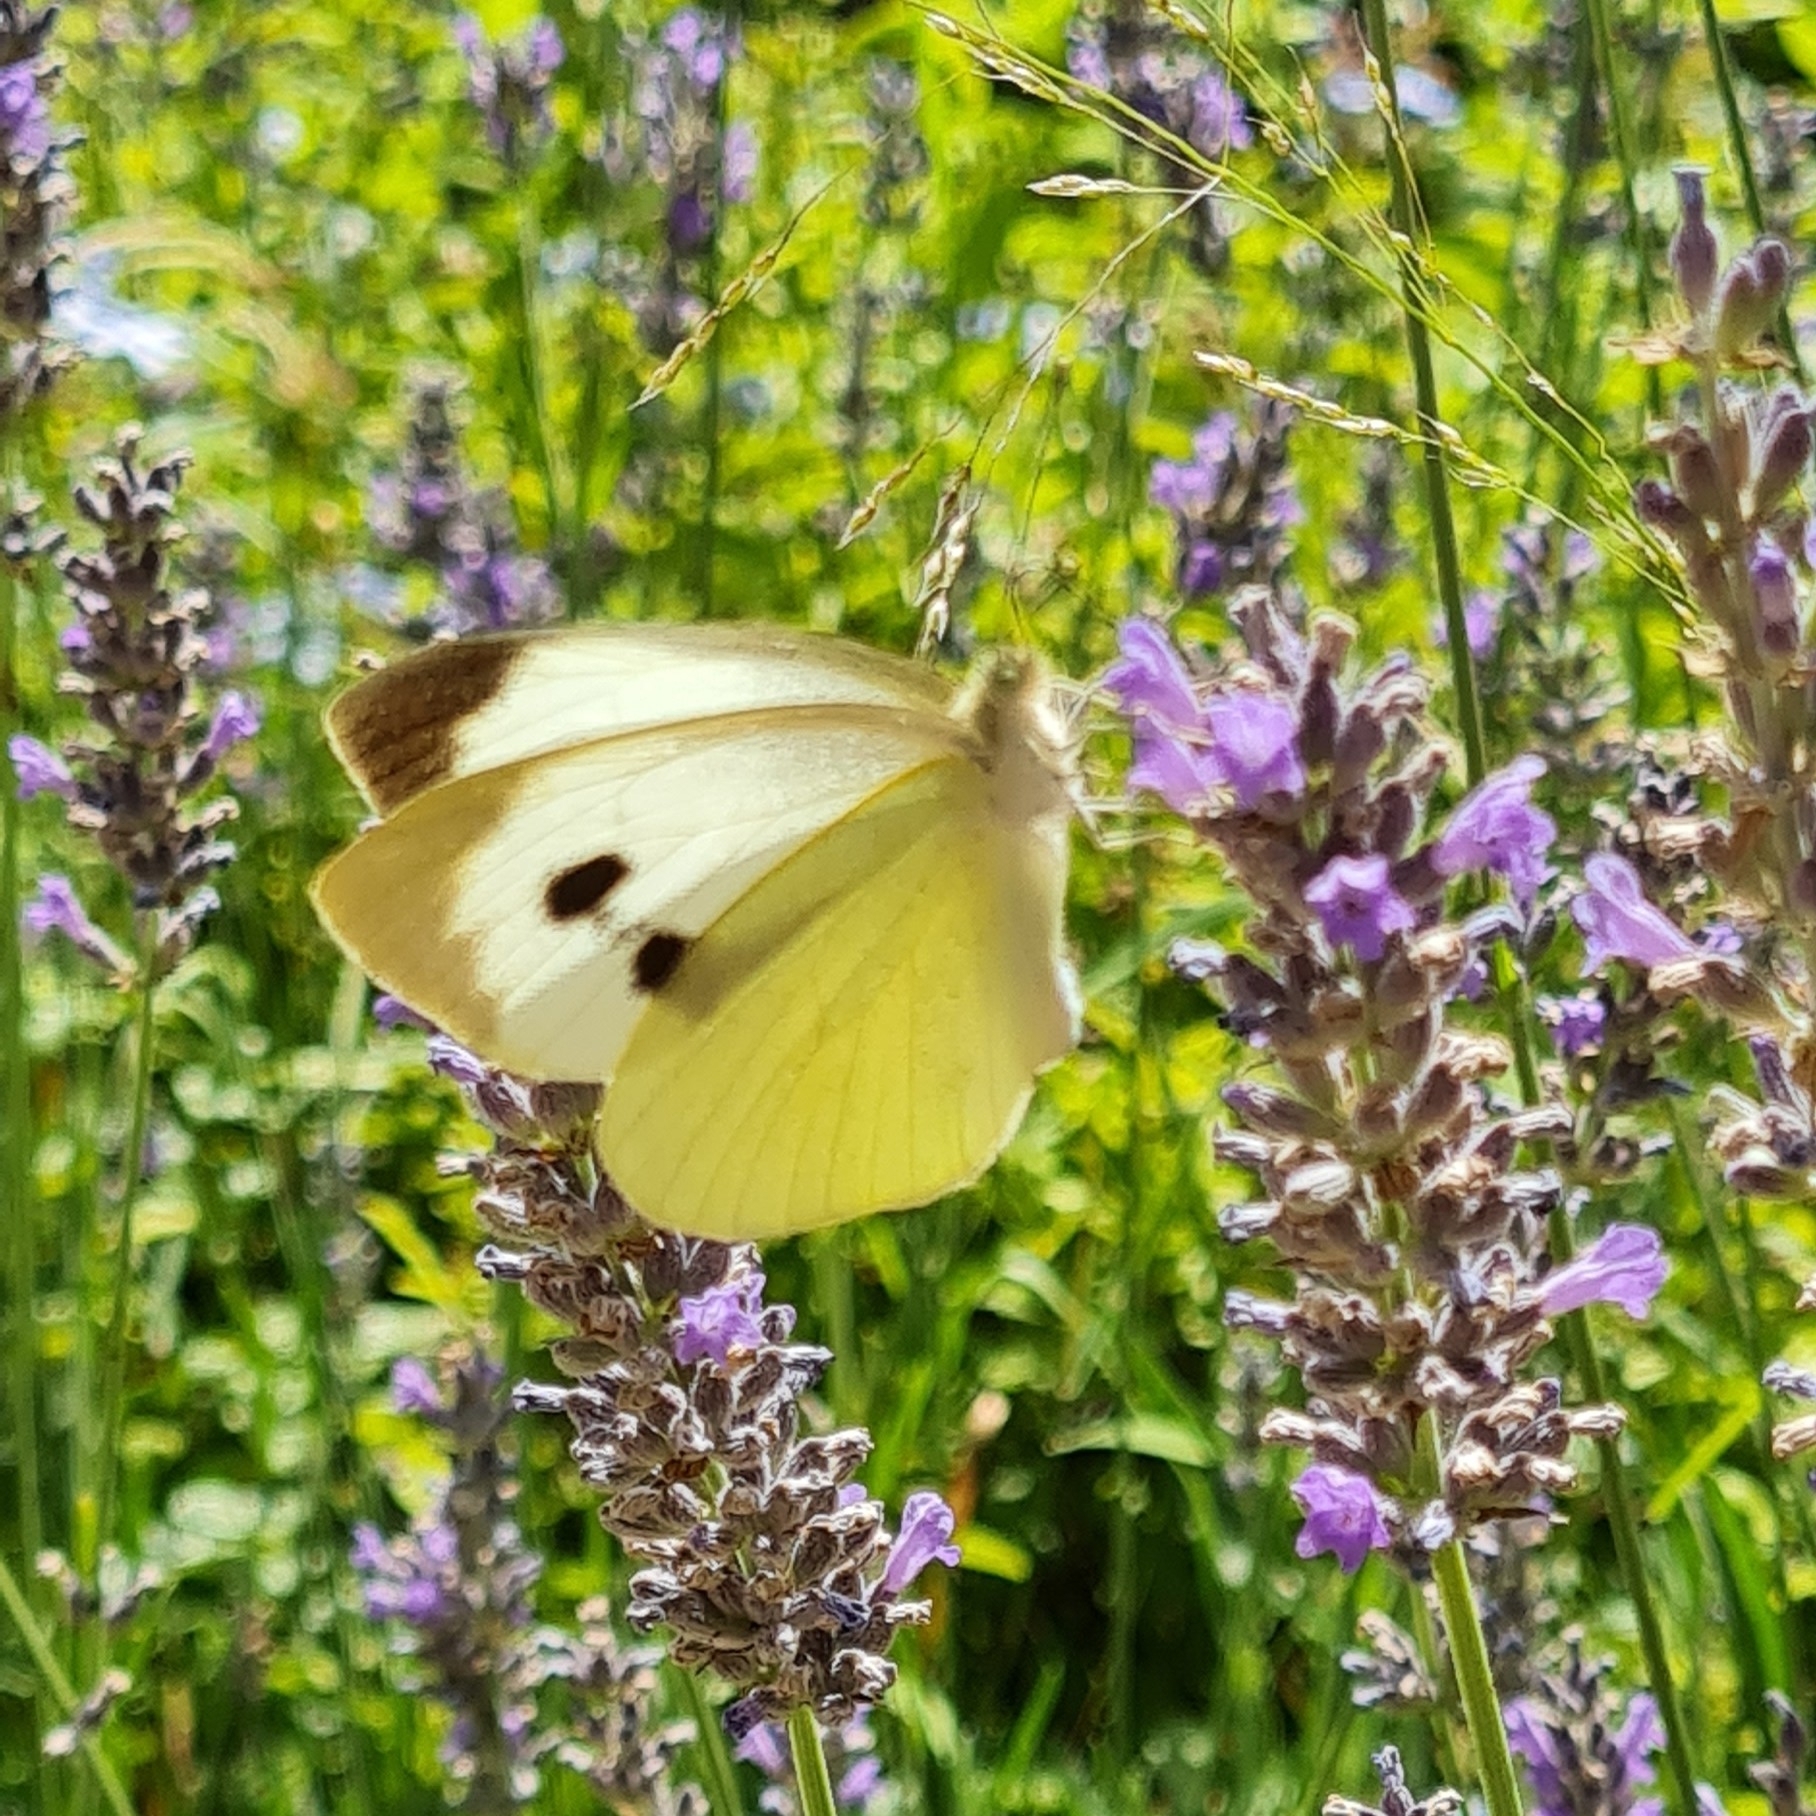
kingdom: Animalia
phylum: Arthropoda
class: Insecta
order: Lepidoptera
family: Pieridae
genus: Pieris
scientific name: Pieris brassicae
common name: Large white
